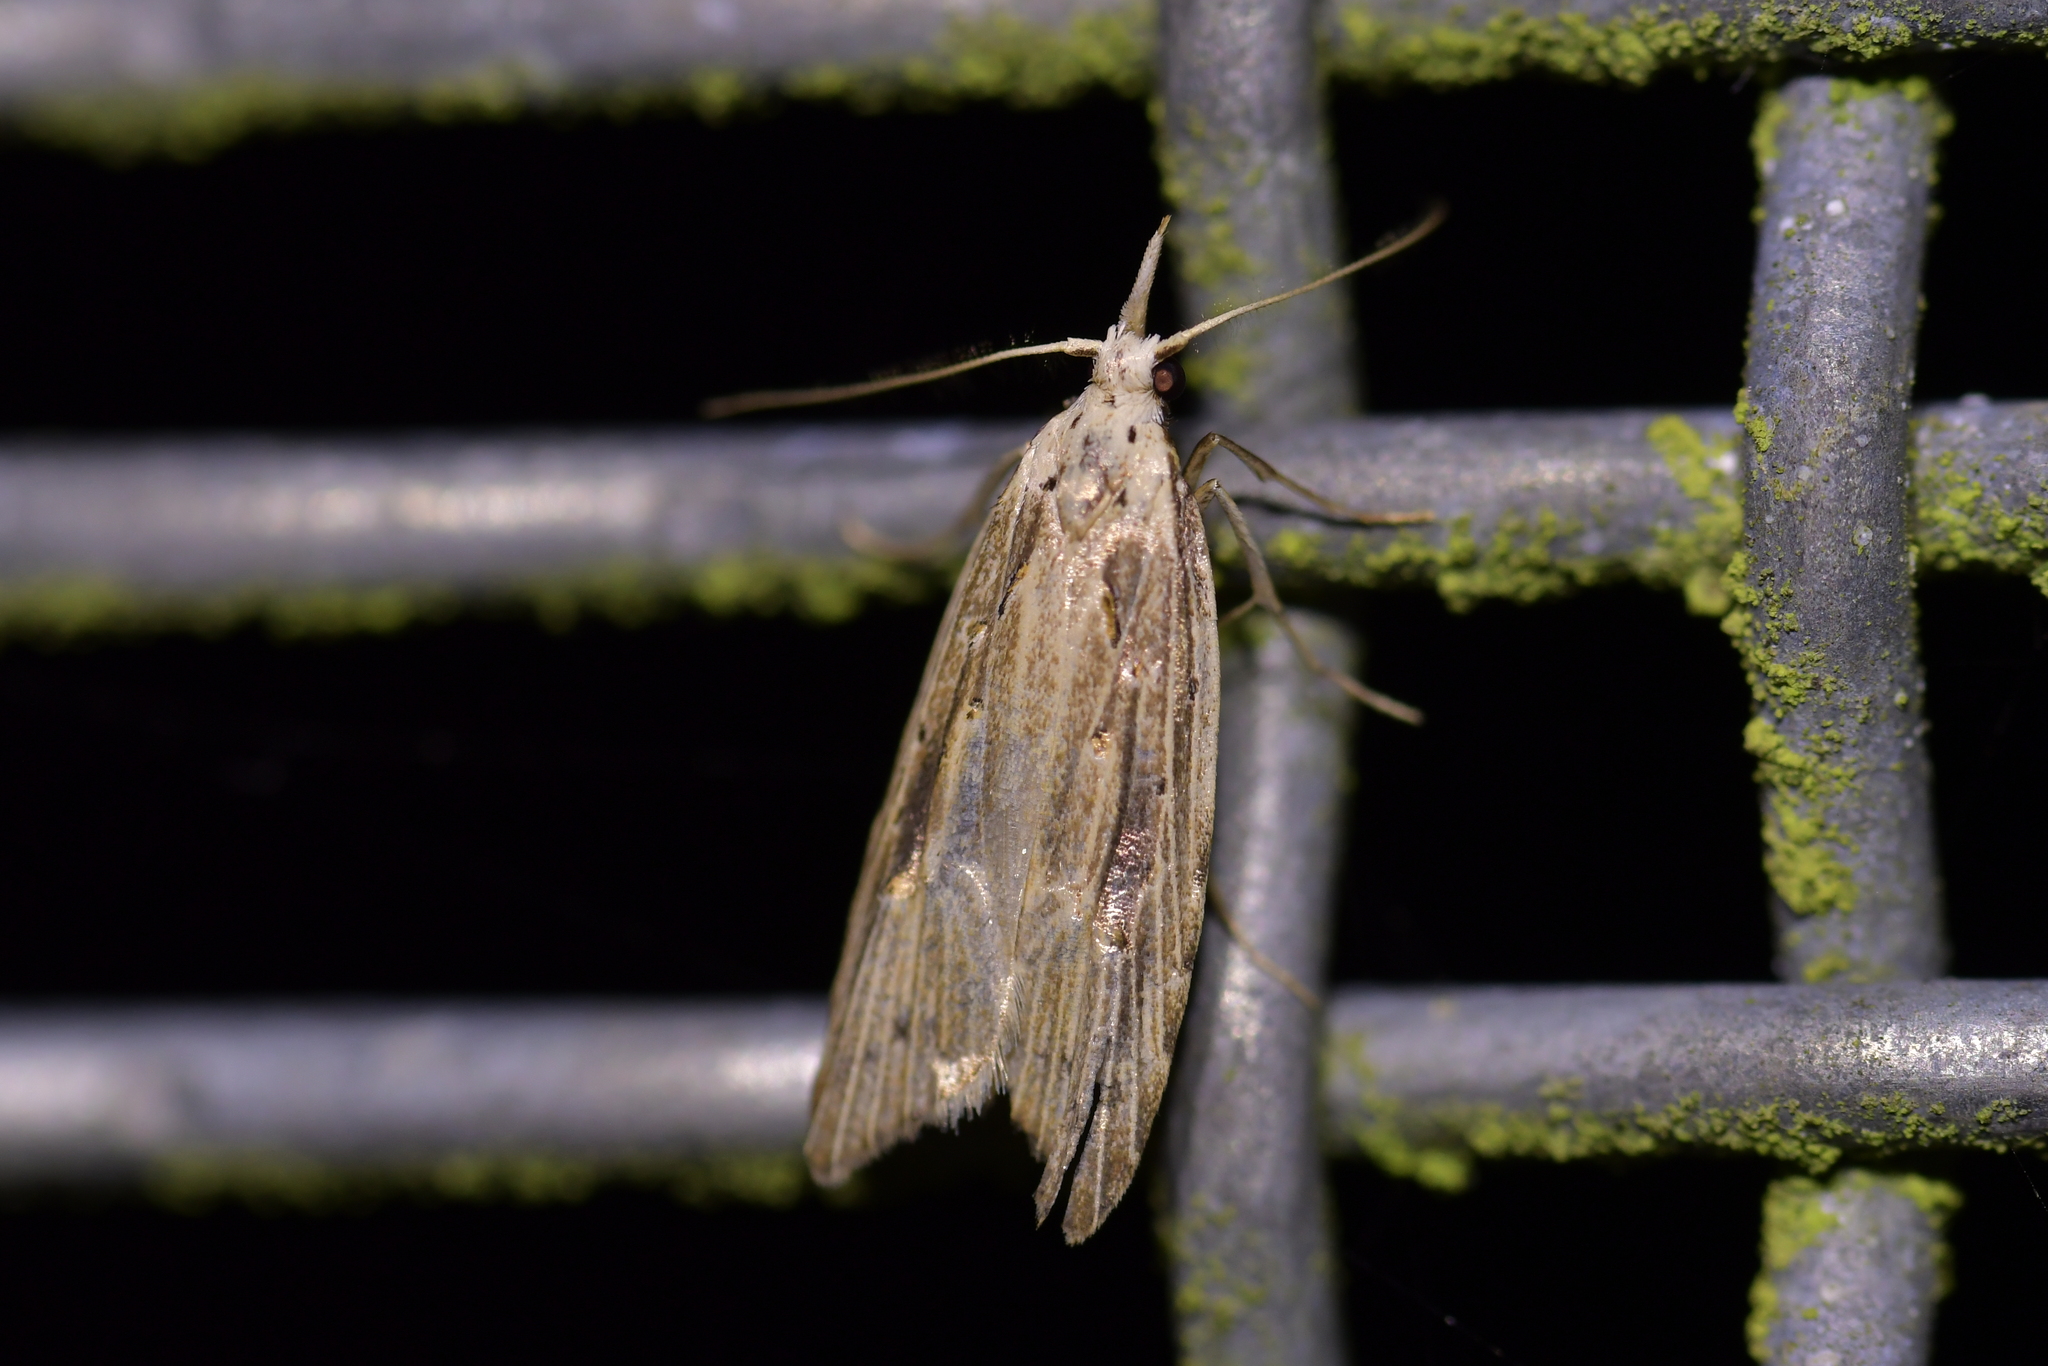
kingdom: Animalia
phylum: Arthropoda
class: Insecta
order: Lepidoptera
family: Carposinidae
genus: Carposina
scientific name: Carposina Heterocrossa exochana
